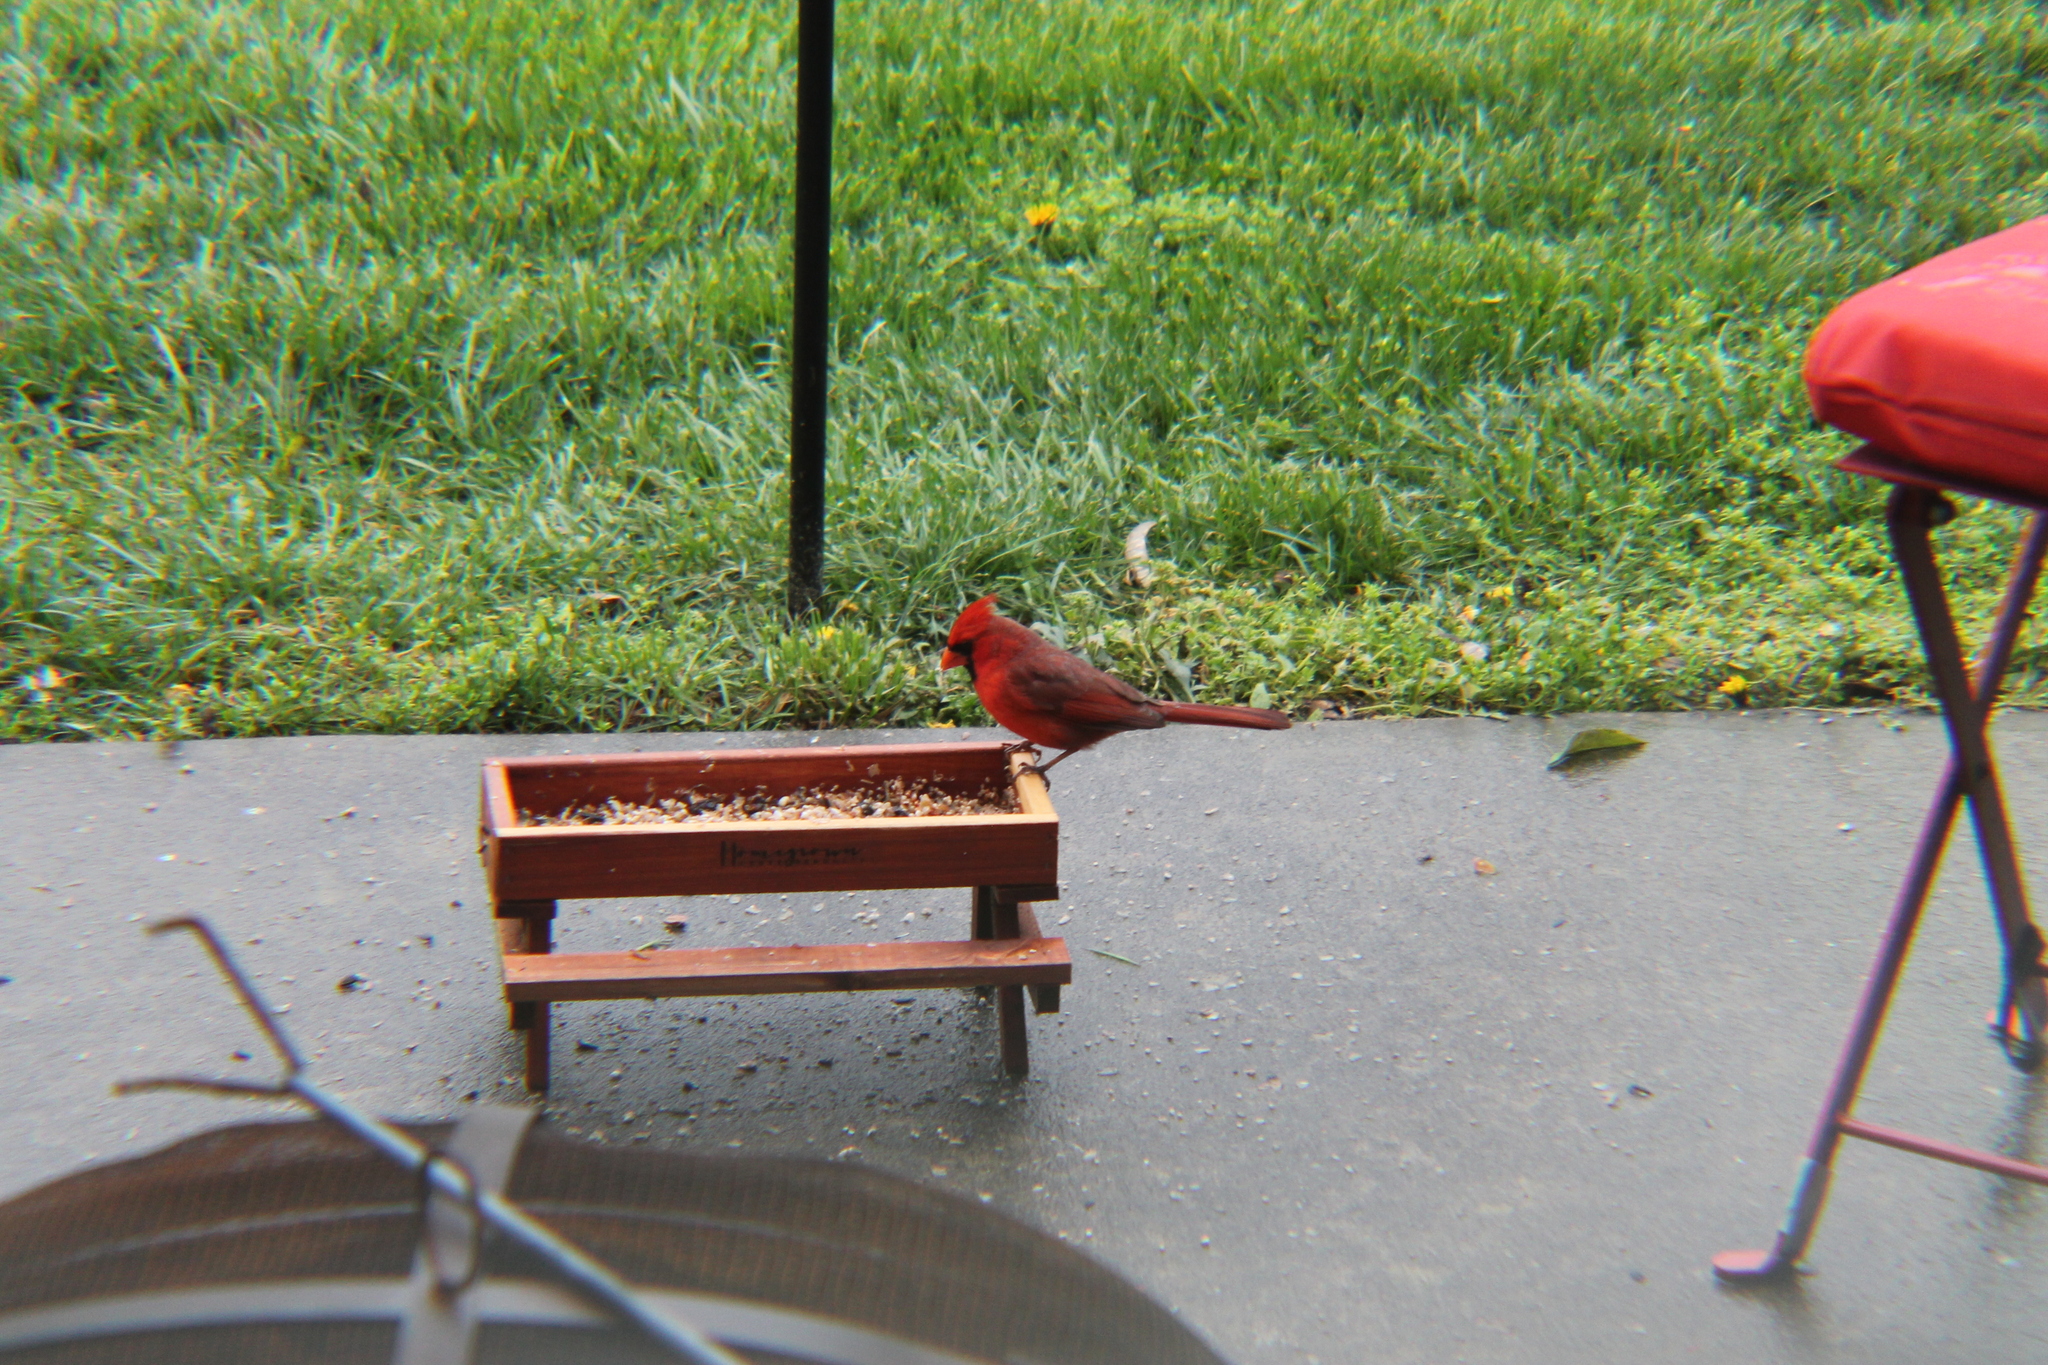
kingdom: Animalia
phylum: Chordata
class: Aves
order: Passeriformes
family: Cardinalidae
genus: Cardinalis
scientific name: Cardinalis cardinalis
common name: Northern cardinal
